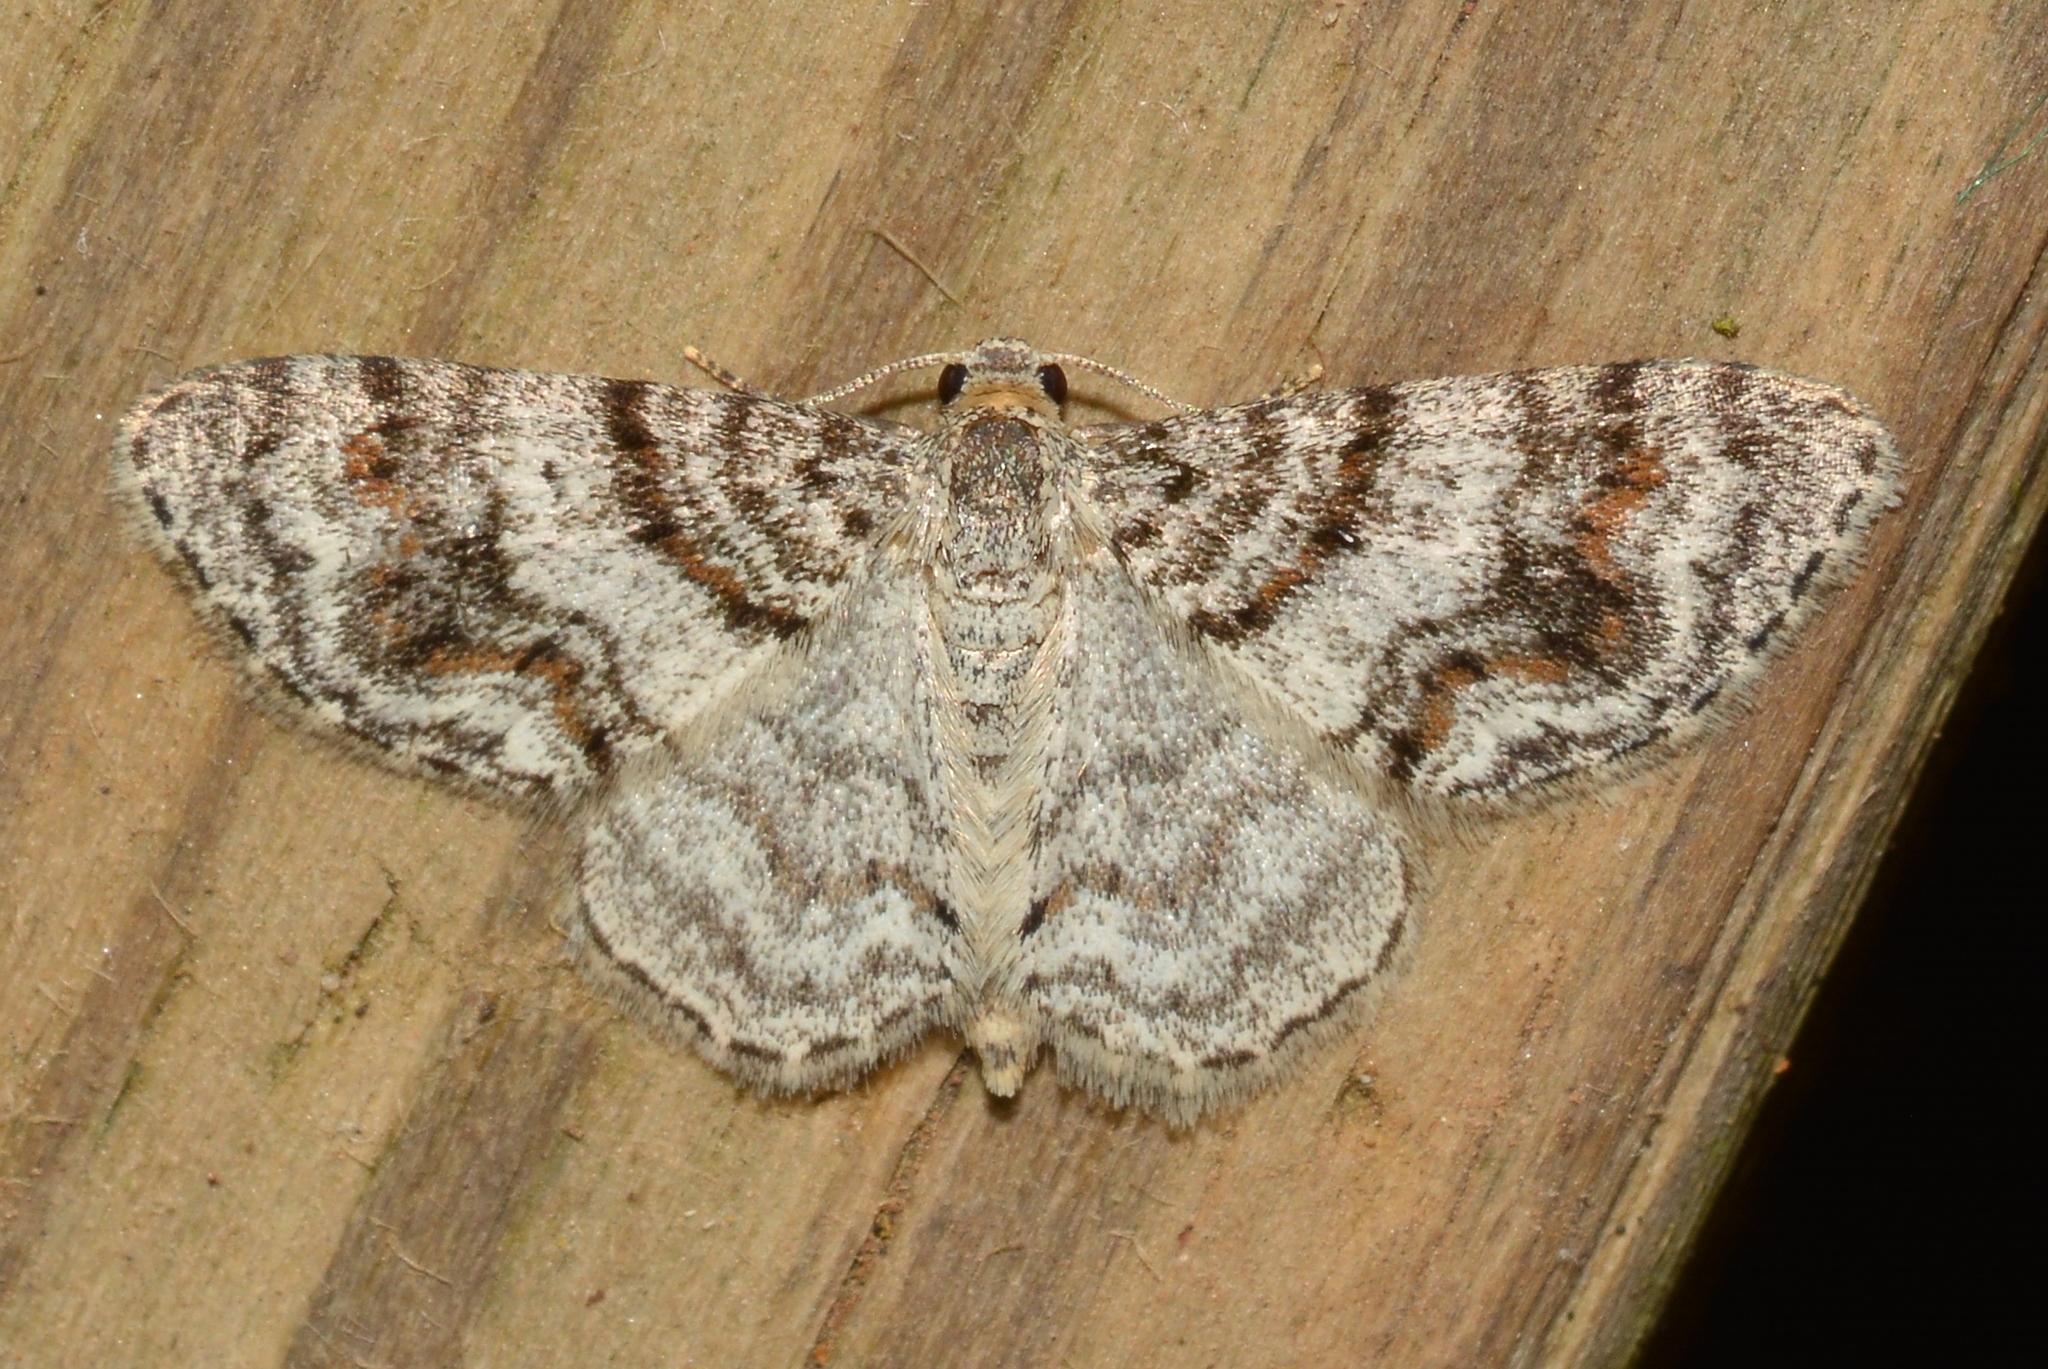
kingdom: Animalia
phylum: Arthropoda
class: Insecta
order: Lepidoptera
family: Geometridae
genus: Hydrelia
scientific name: Hydrelia inornata
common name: Unadorned carpet moth
